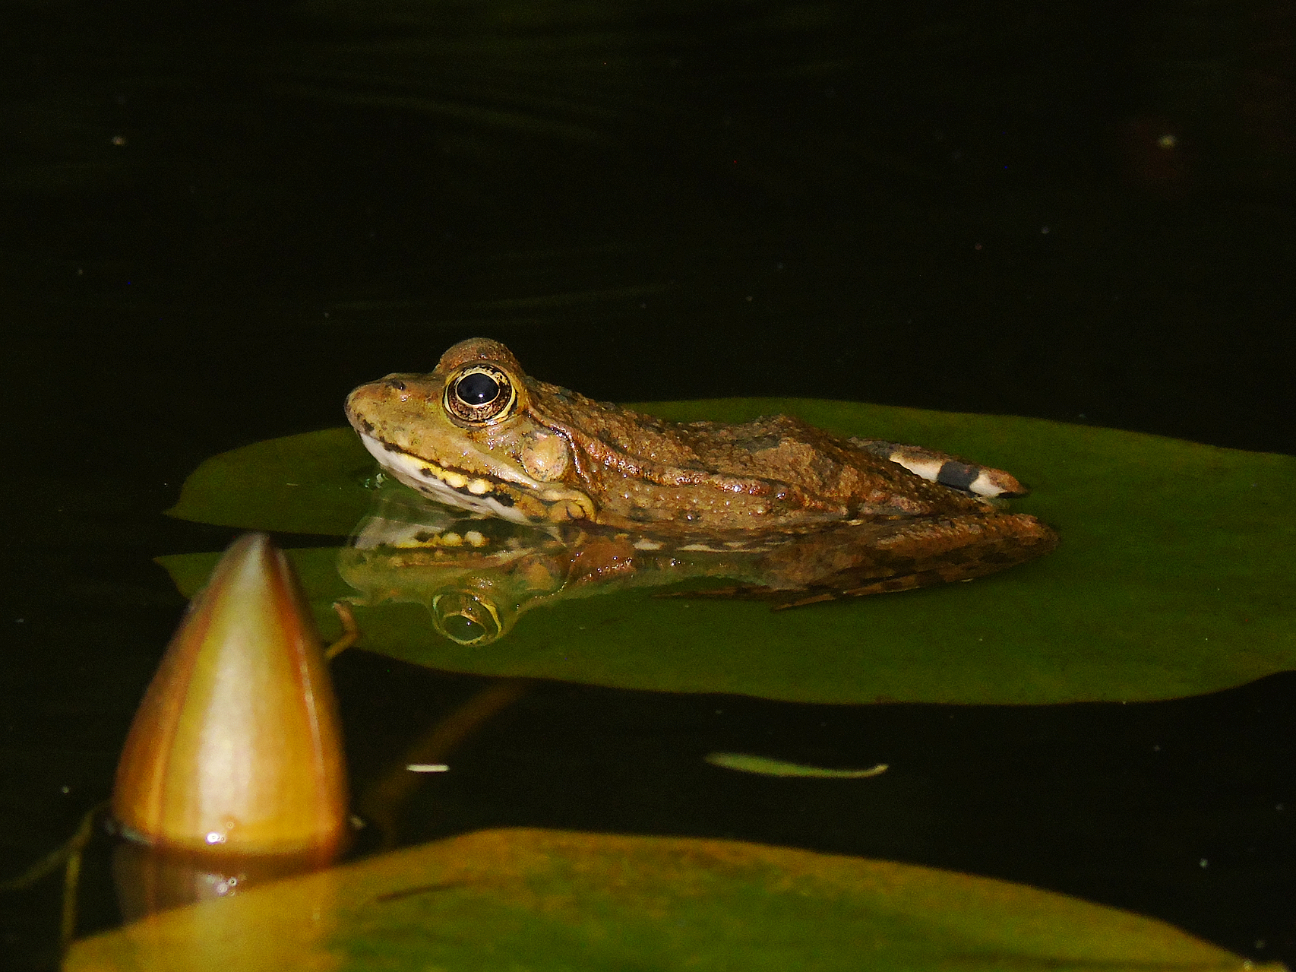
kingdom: Animalia
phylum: Chordata
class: Amphibia
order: Anura
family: Ranidae
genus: Pelophylax
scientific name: Pelophylax ridibundus
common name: Marsh frog
